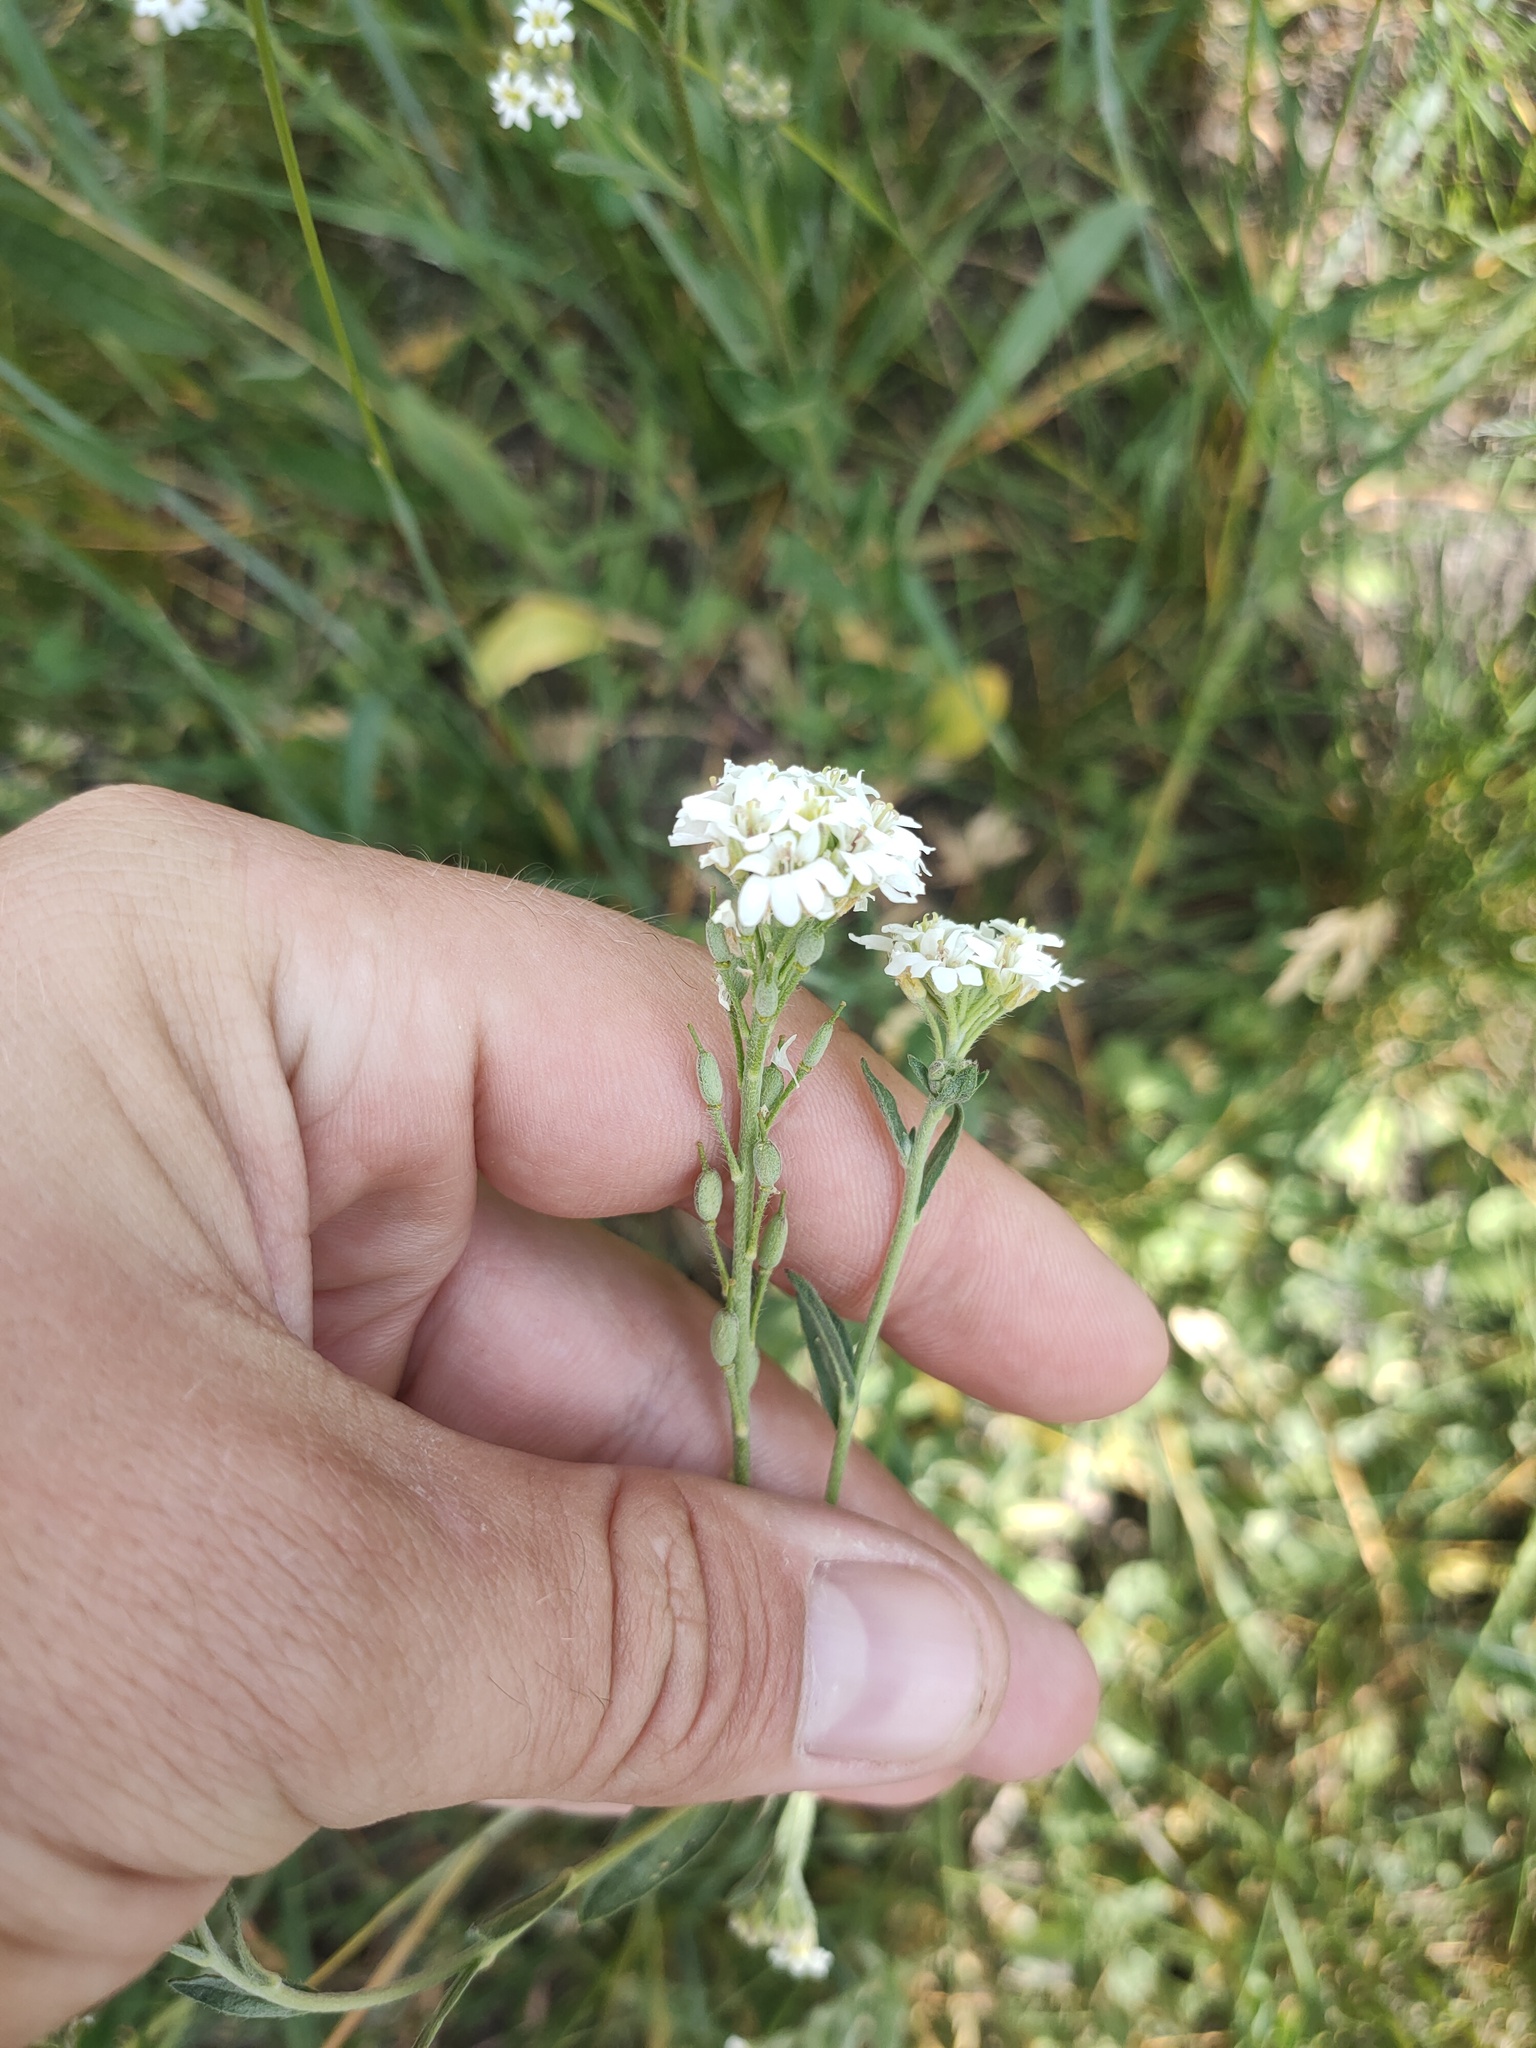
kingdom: Plantae
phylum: Tracheophyta
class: Magnoliopsida
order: Brassicales
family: Brassicaceae
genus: Berteroa
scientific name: Berteroa incana
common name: Hoary alison
